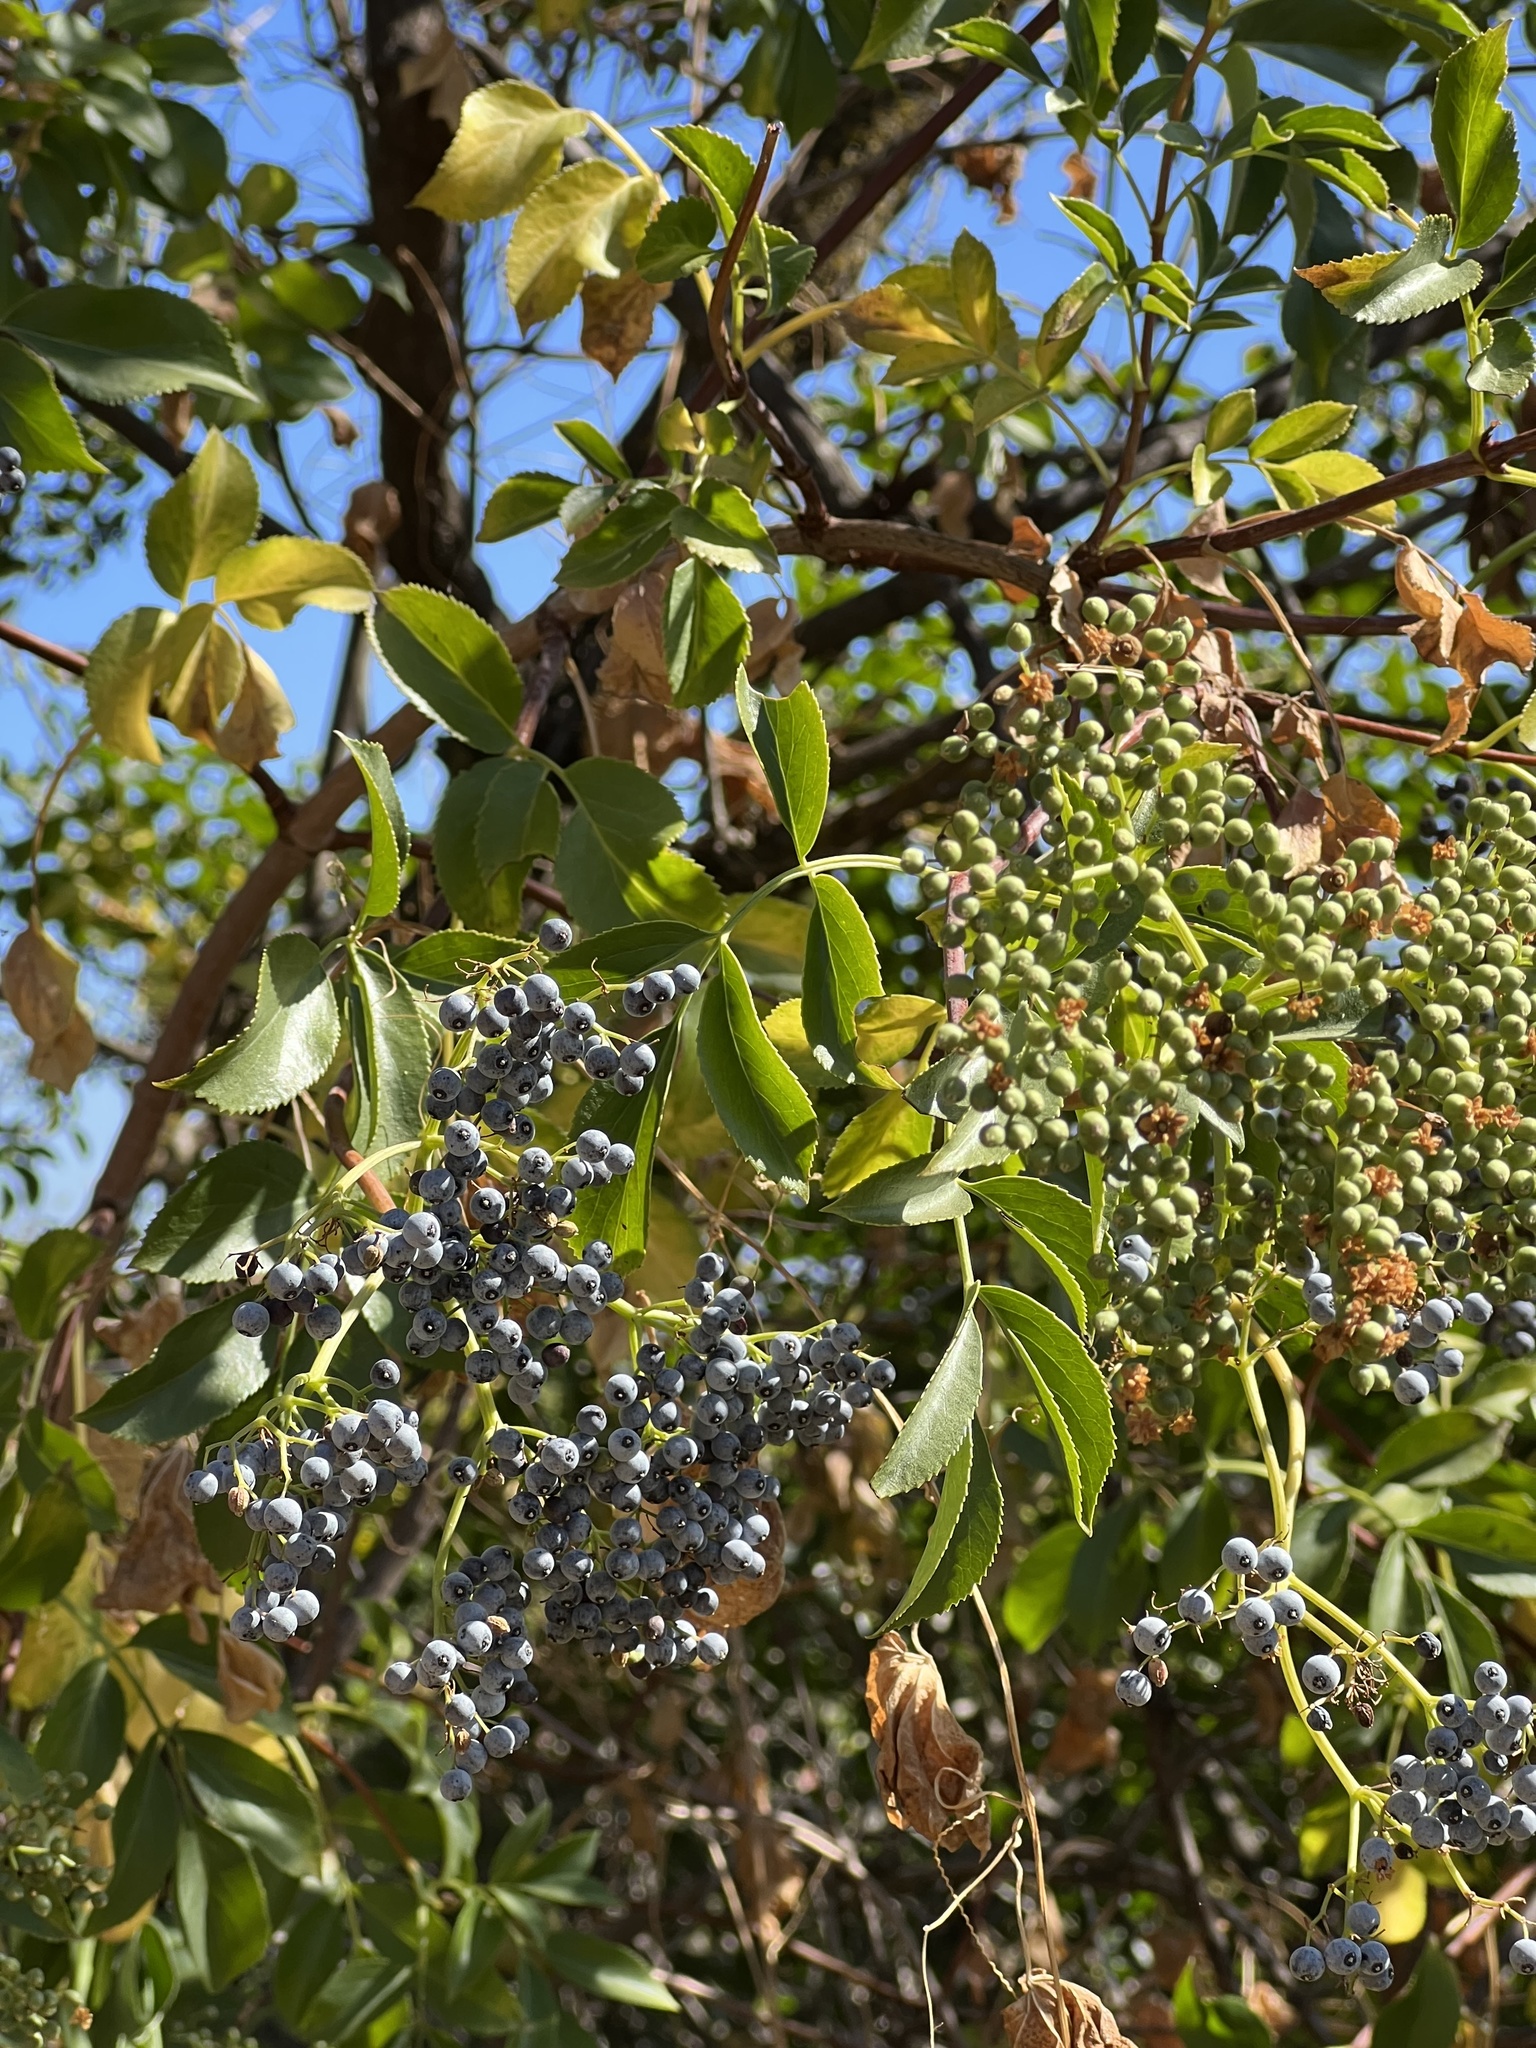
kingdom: Plantae
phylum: Tracheophyta
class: Magnoliopsida
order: Dipsacales
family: Viburnaceae
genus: Sambucus
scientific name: Sambucus cerulea
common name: Blue elder
